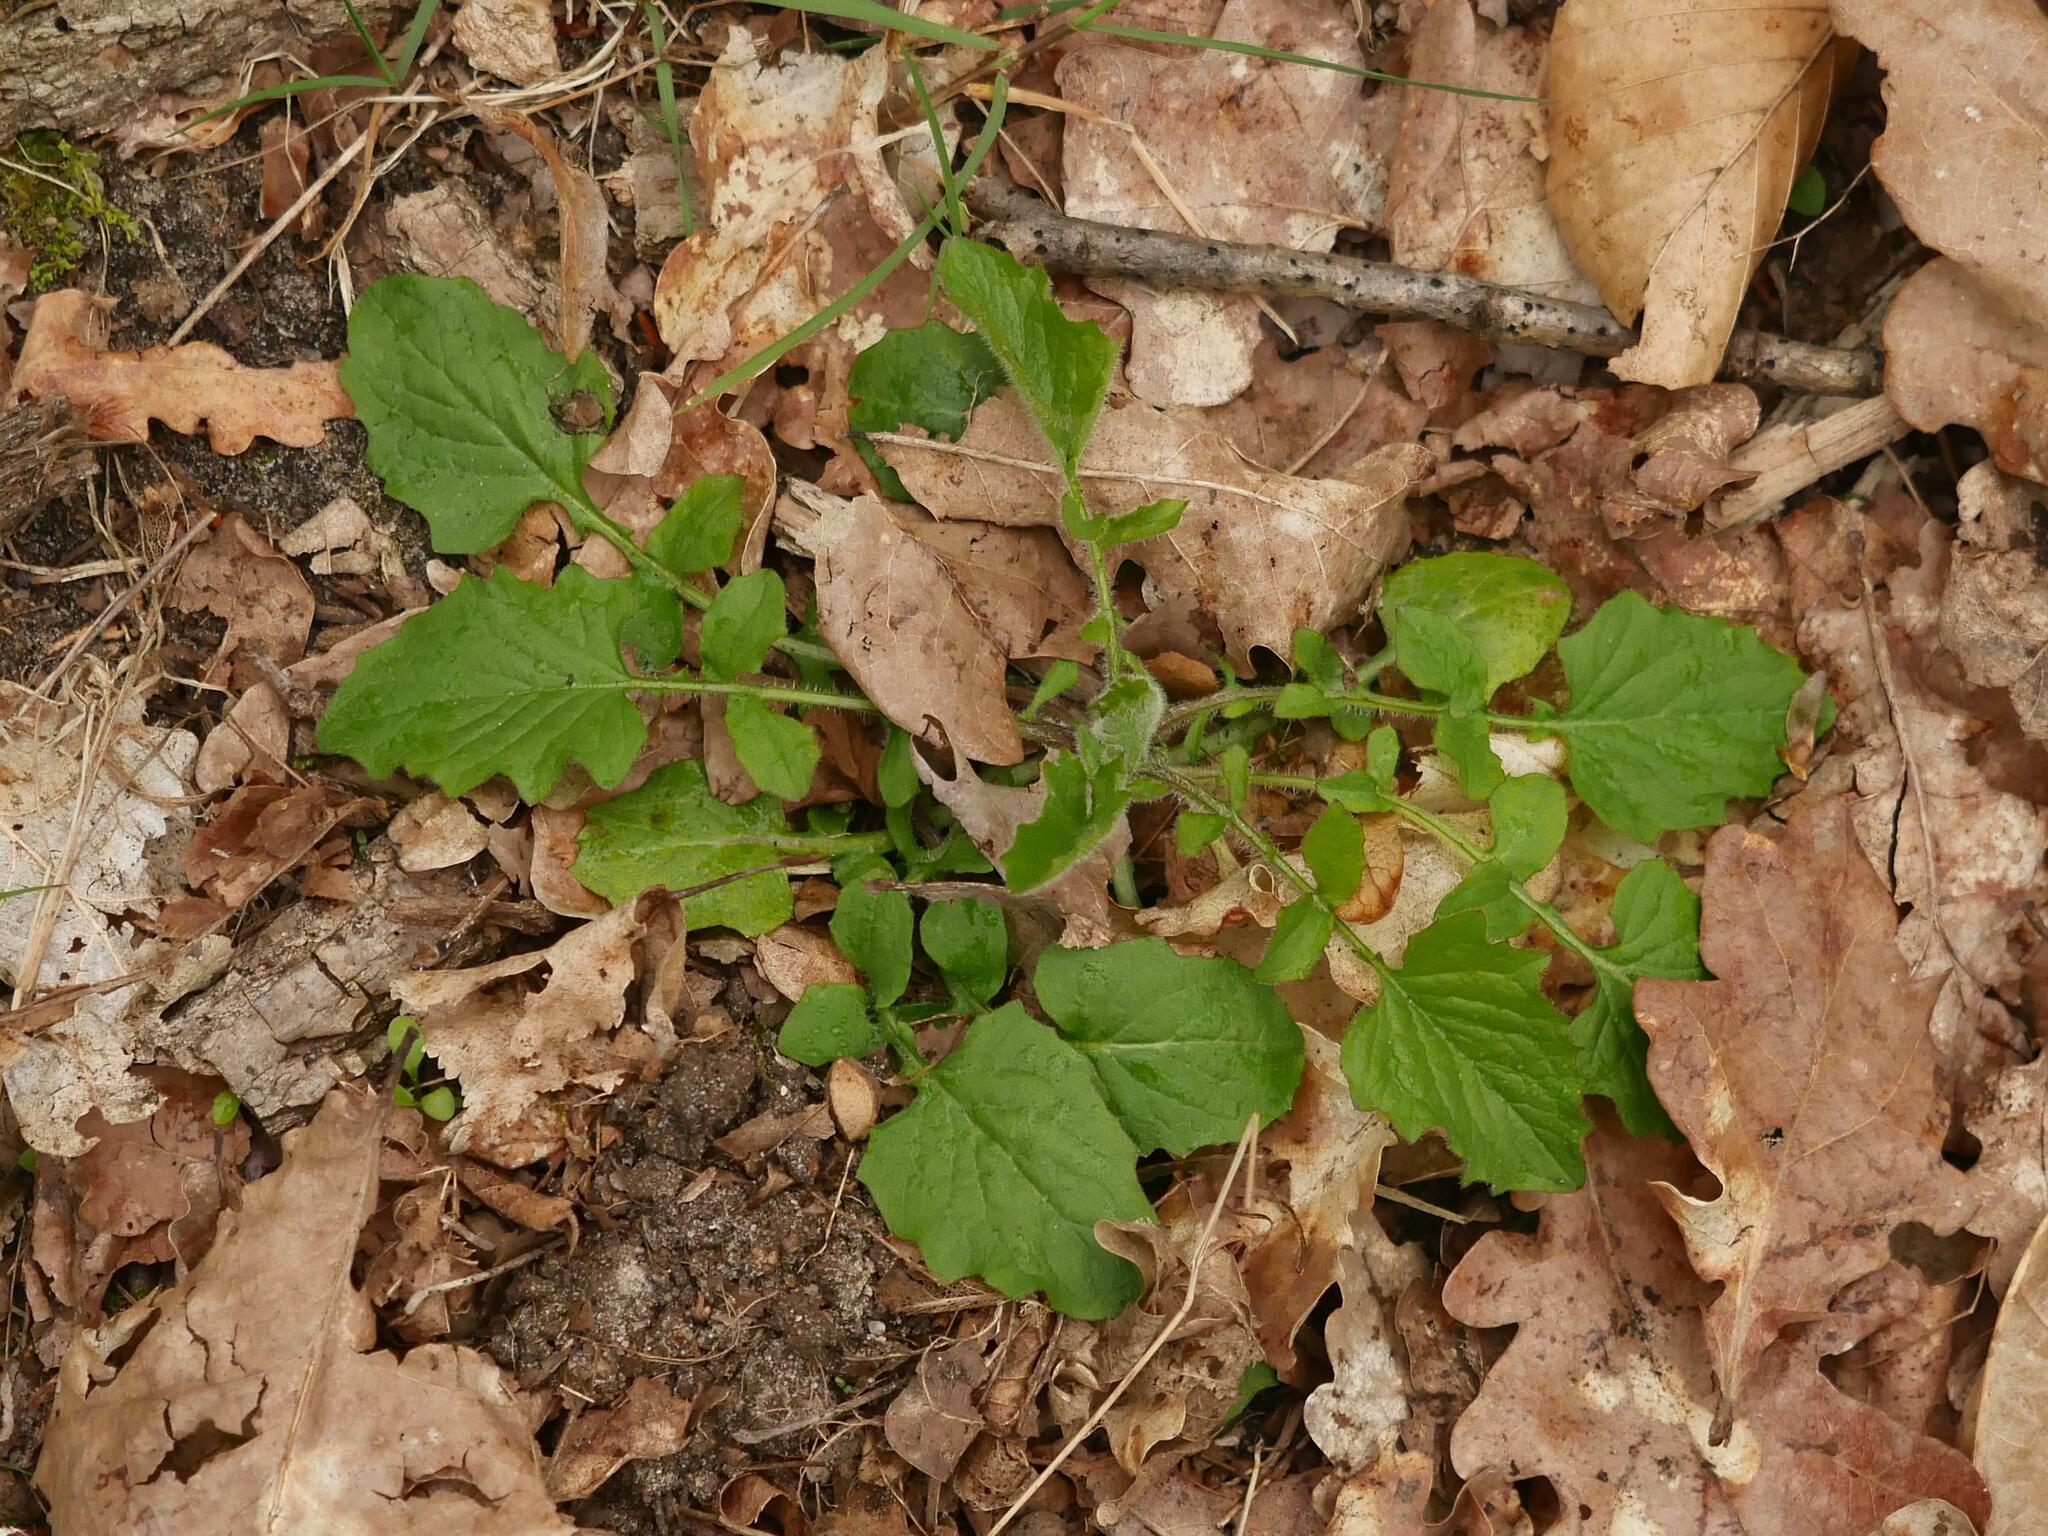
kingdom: Plantae
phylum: Tracheophyta
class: Magnoliopsida
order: Asterales
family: Asteraceae
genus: Lapsana
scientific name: Lapsana communis
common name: Nipplewort
